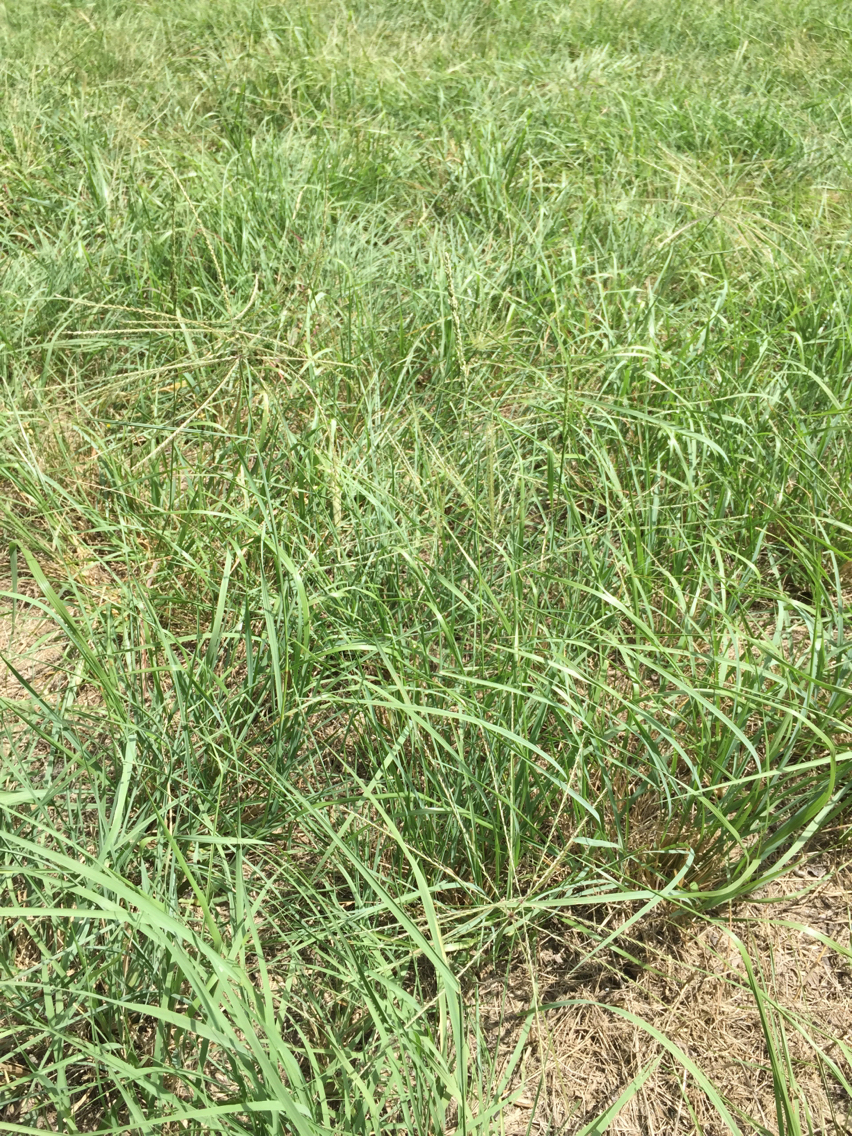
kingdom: Plantae
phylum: Tracheophyta
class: Liliopsida
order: Poales
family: Poaceae
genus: Chloris
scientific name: Chloris verticillata
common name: Tumble windmill grass
